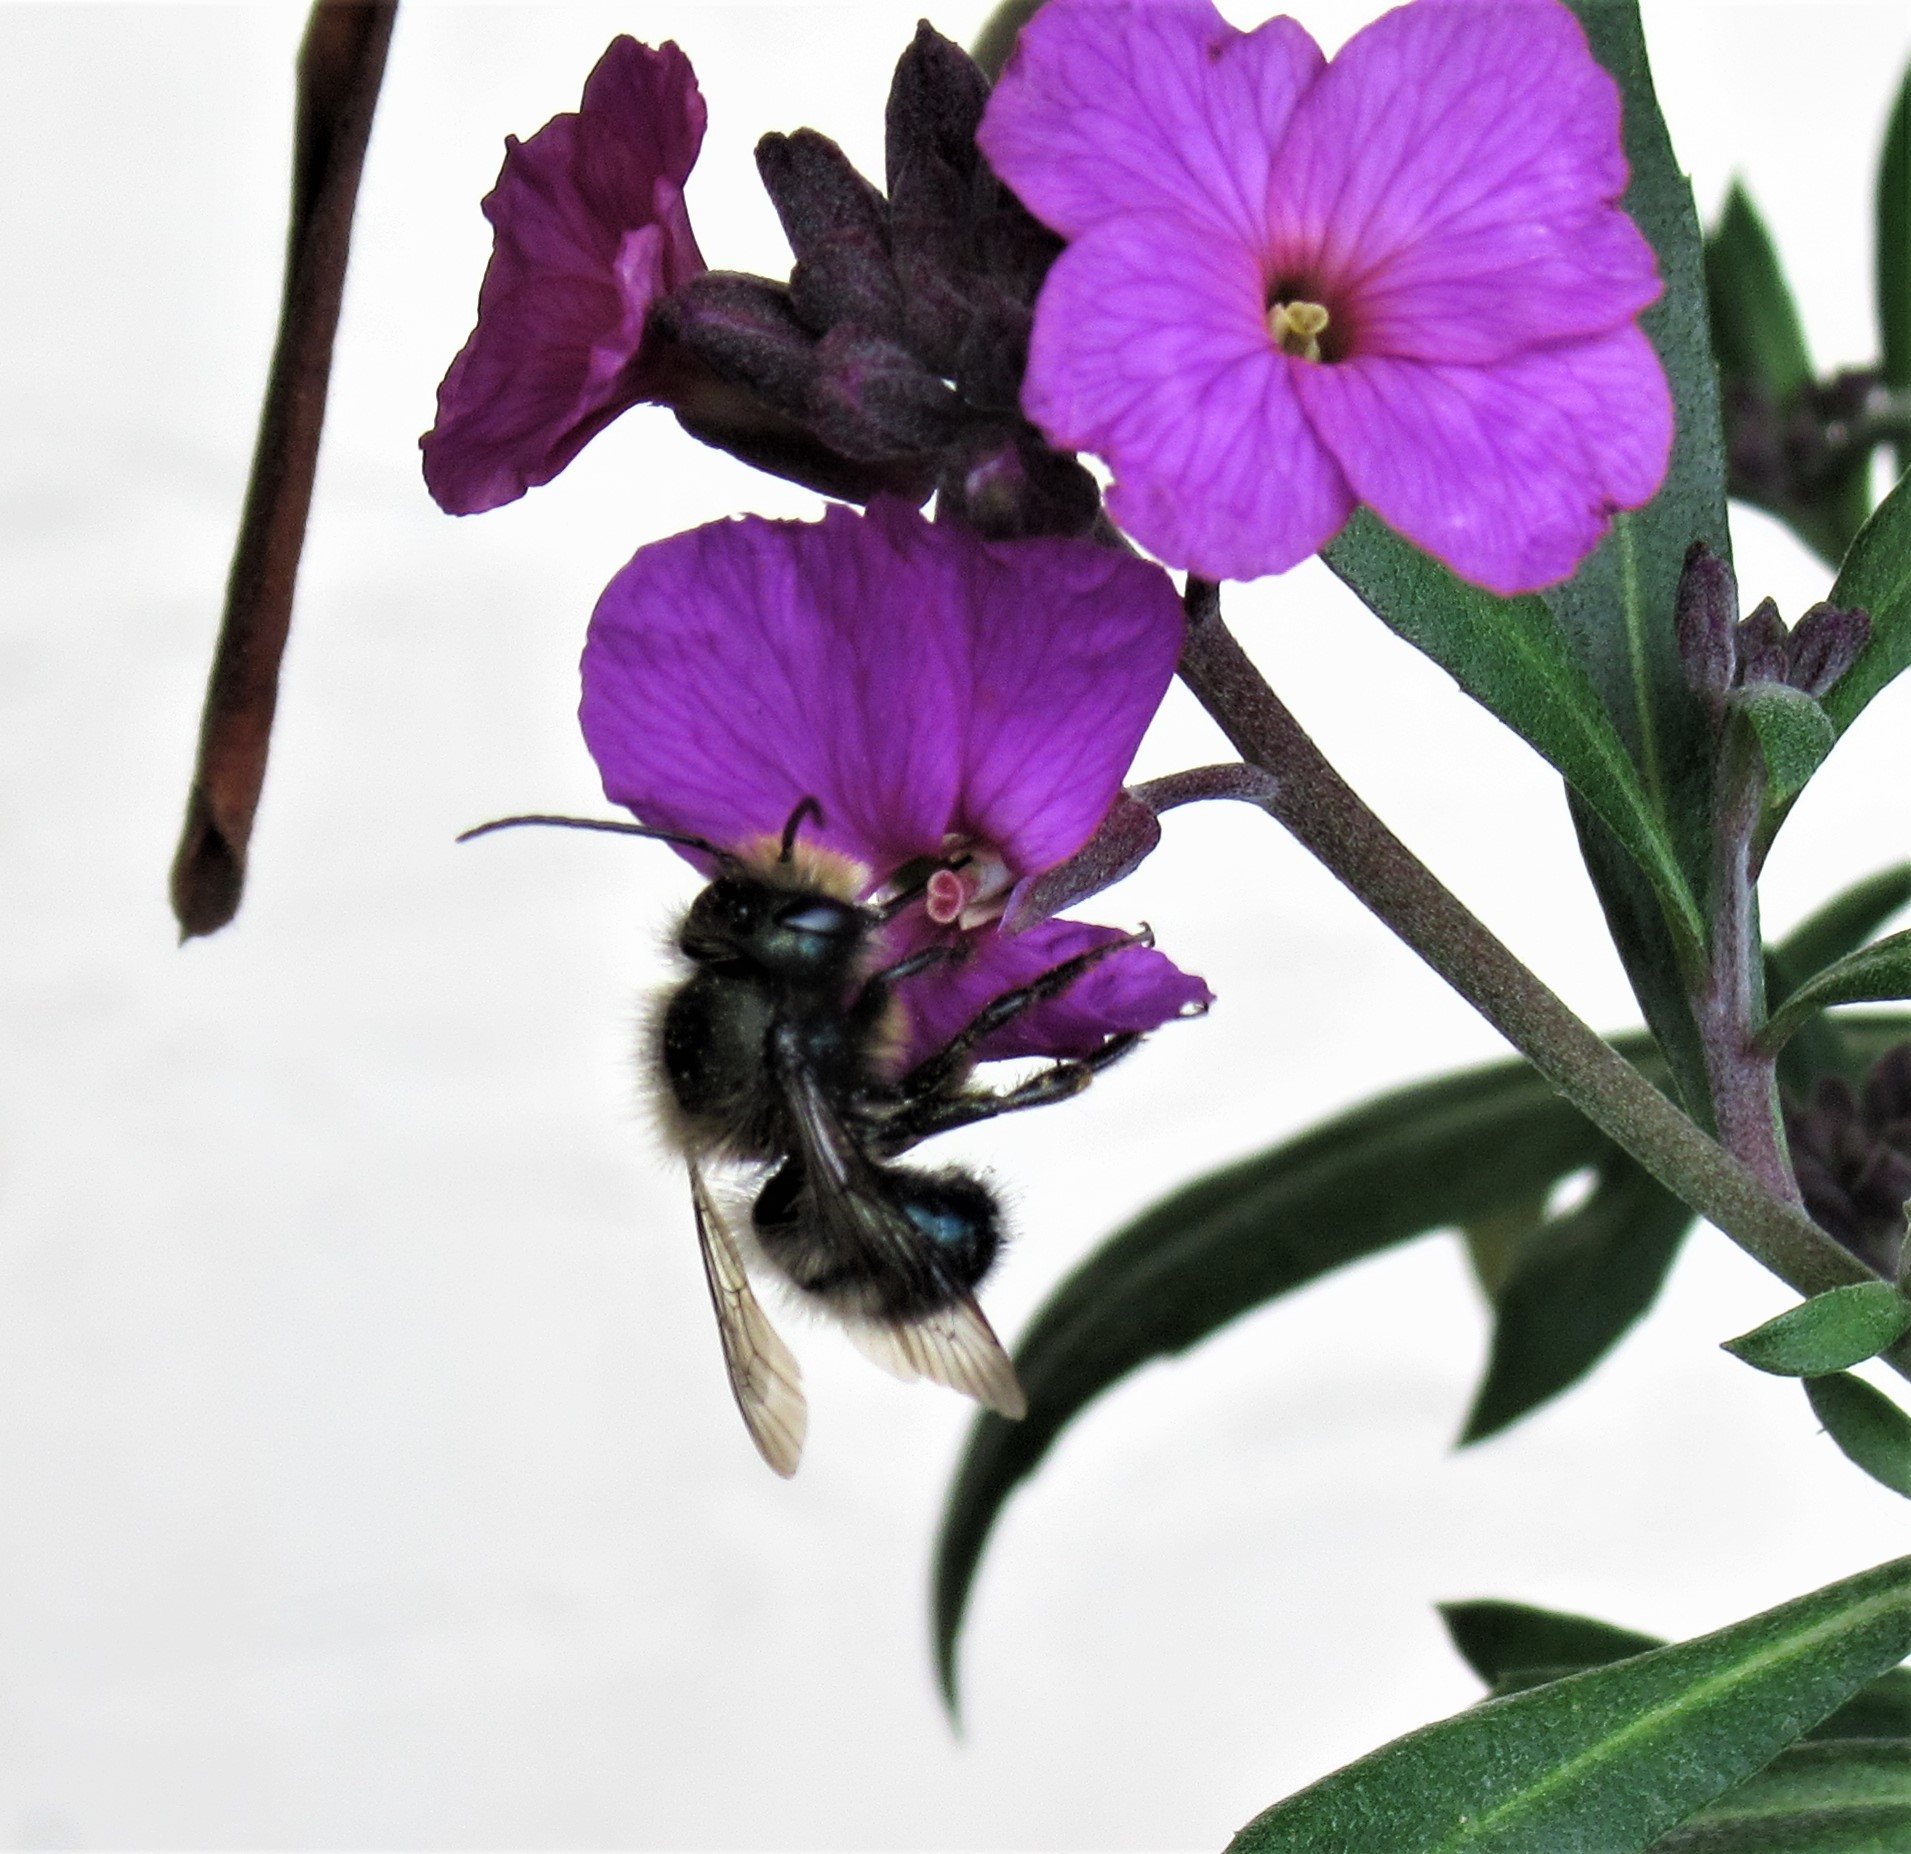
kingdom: Animalia
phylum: Arthropoda
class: Insecta
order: Hymenoptera
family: Megachilidae
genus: Osmia
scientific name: Osmia lignaria
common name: Blue orchard bee
